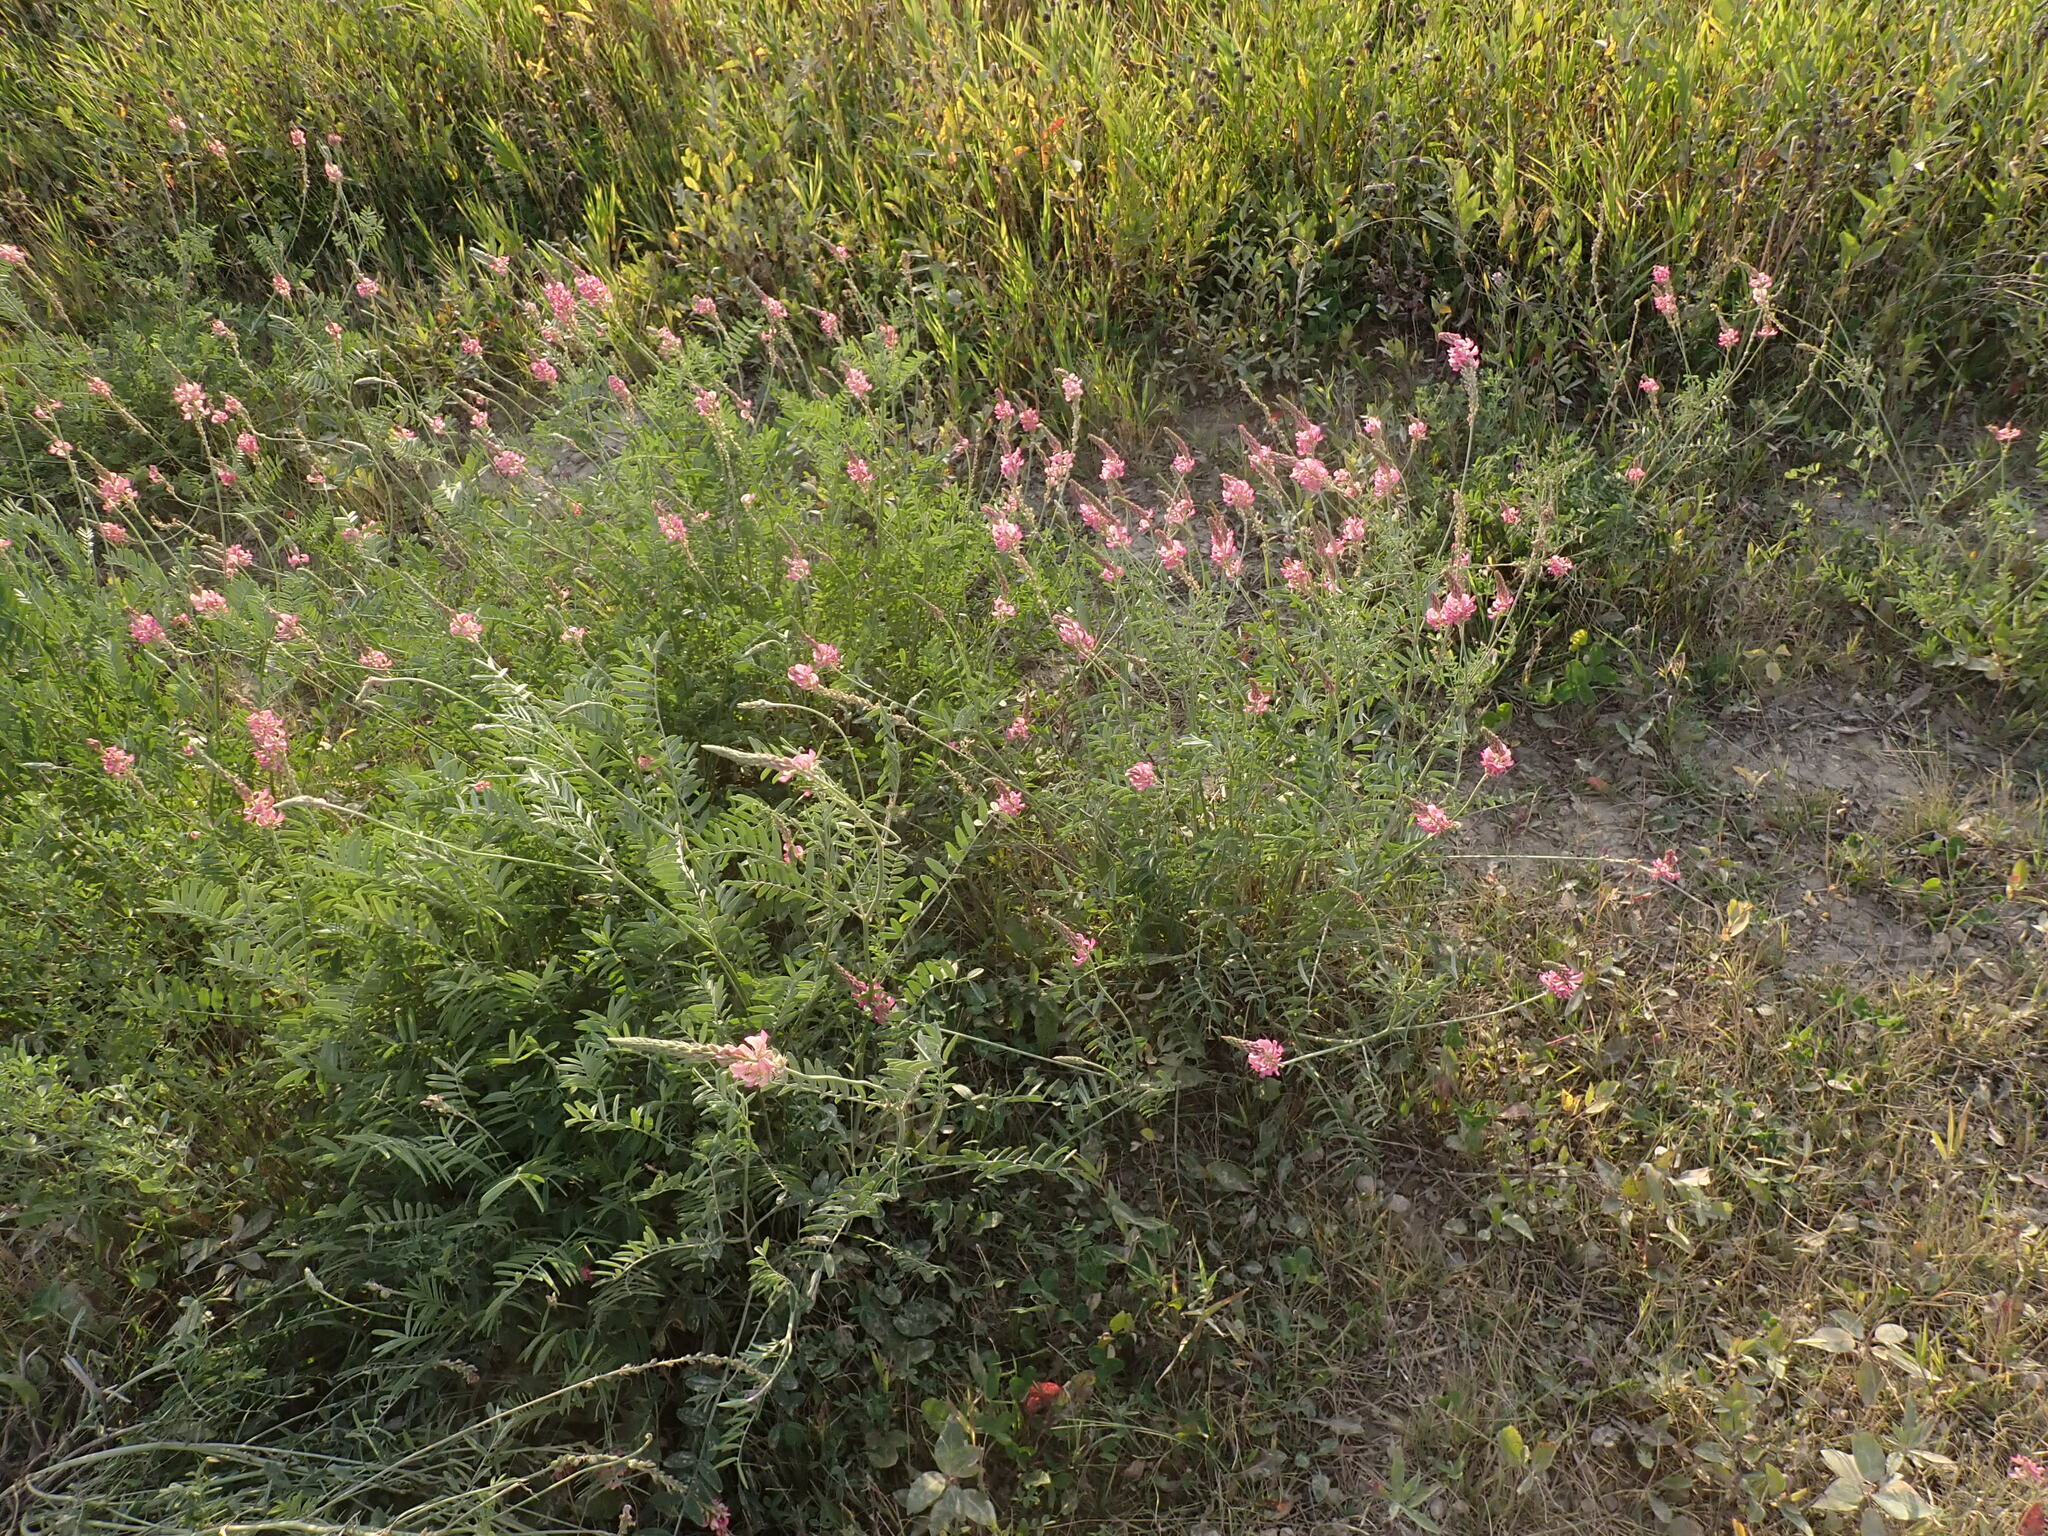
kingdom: Plantae
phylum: Tracheophyta
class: Magnoliopsida
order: Fabales
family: Fabaceae
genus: Onobrychis
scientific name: Onobrychis viciifolia
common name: Sainfoin
